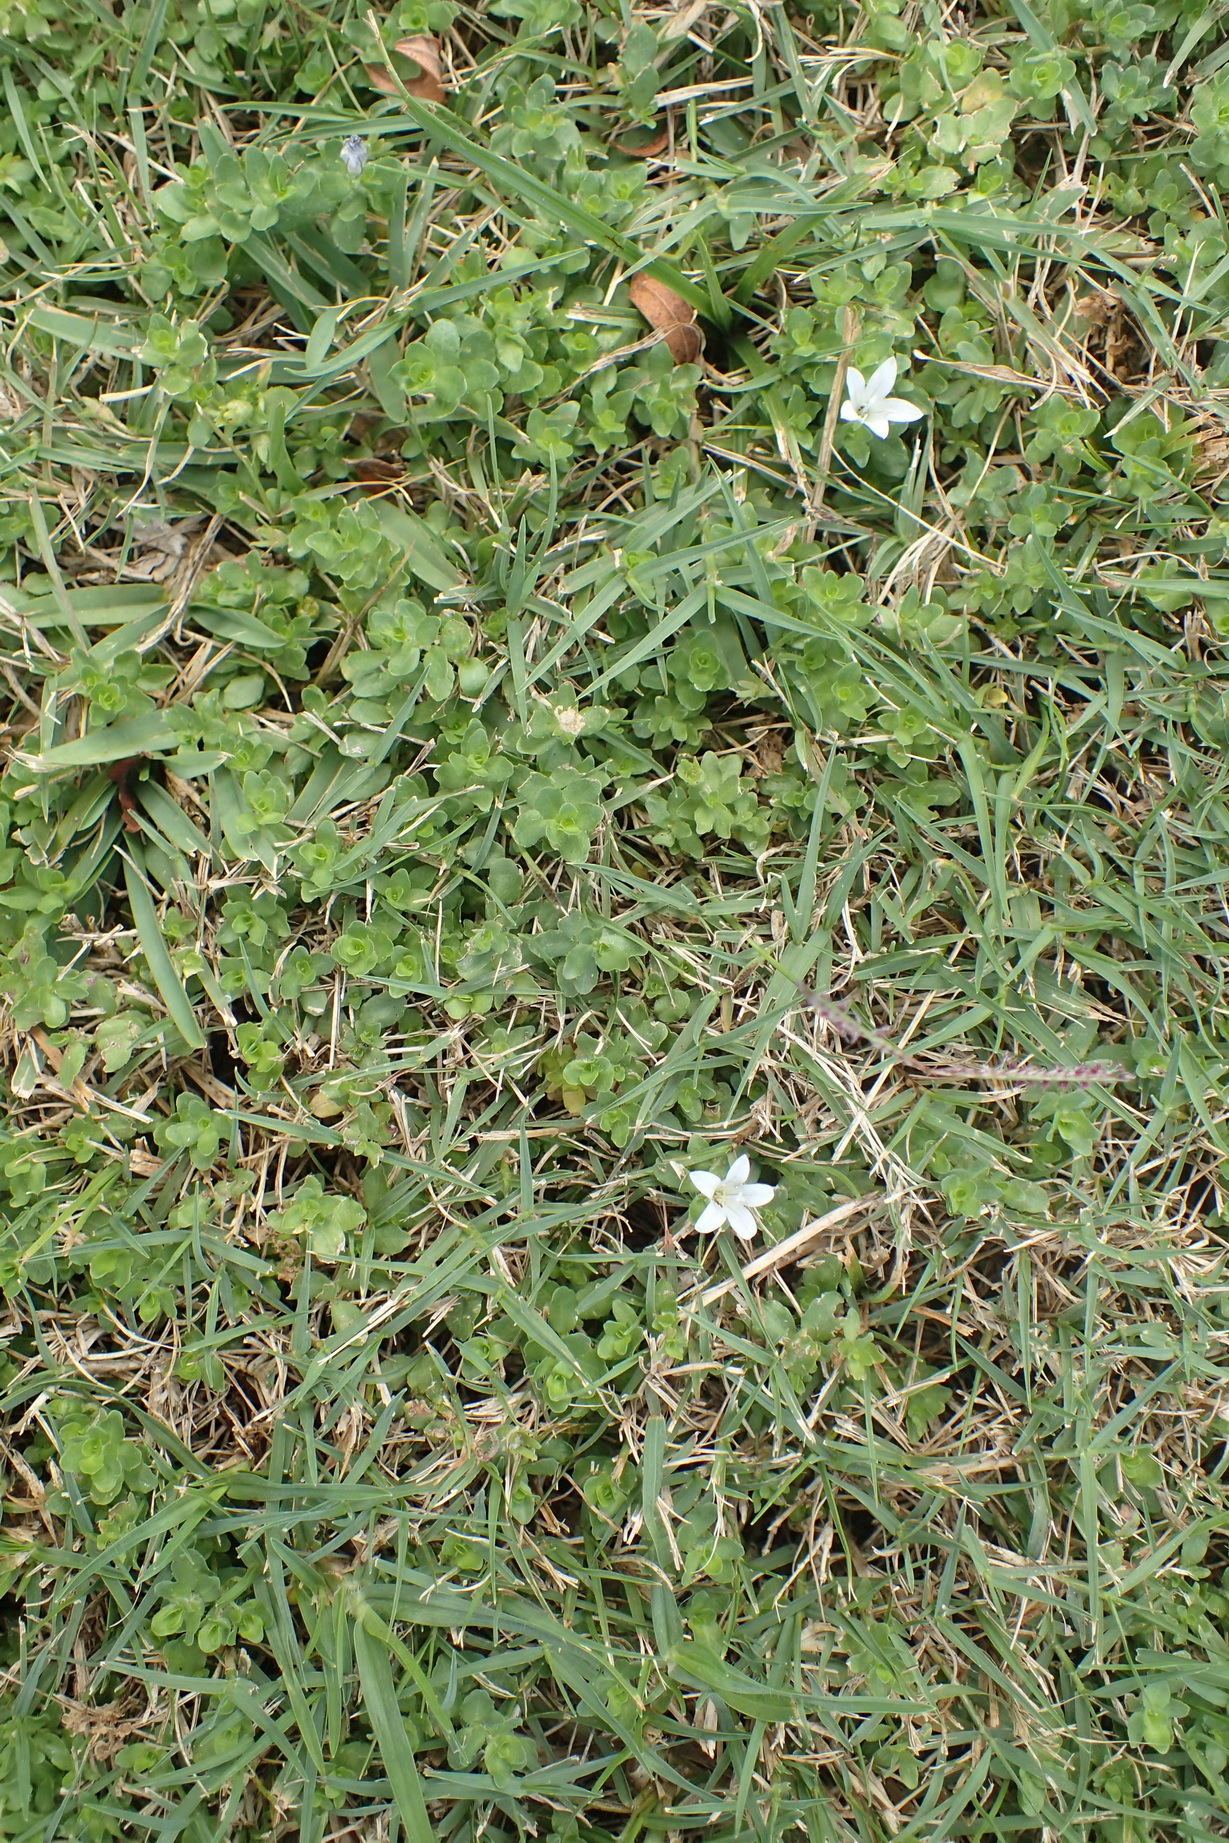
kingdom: Plantae
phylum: Tracheophyta
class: Magnoliopsida
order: Asterales
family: Campanulaceae
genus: Wahlenbergia
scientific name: Wahlenbergia procumbens
